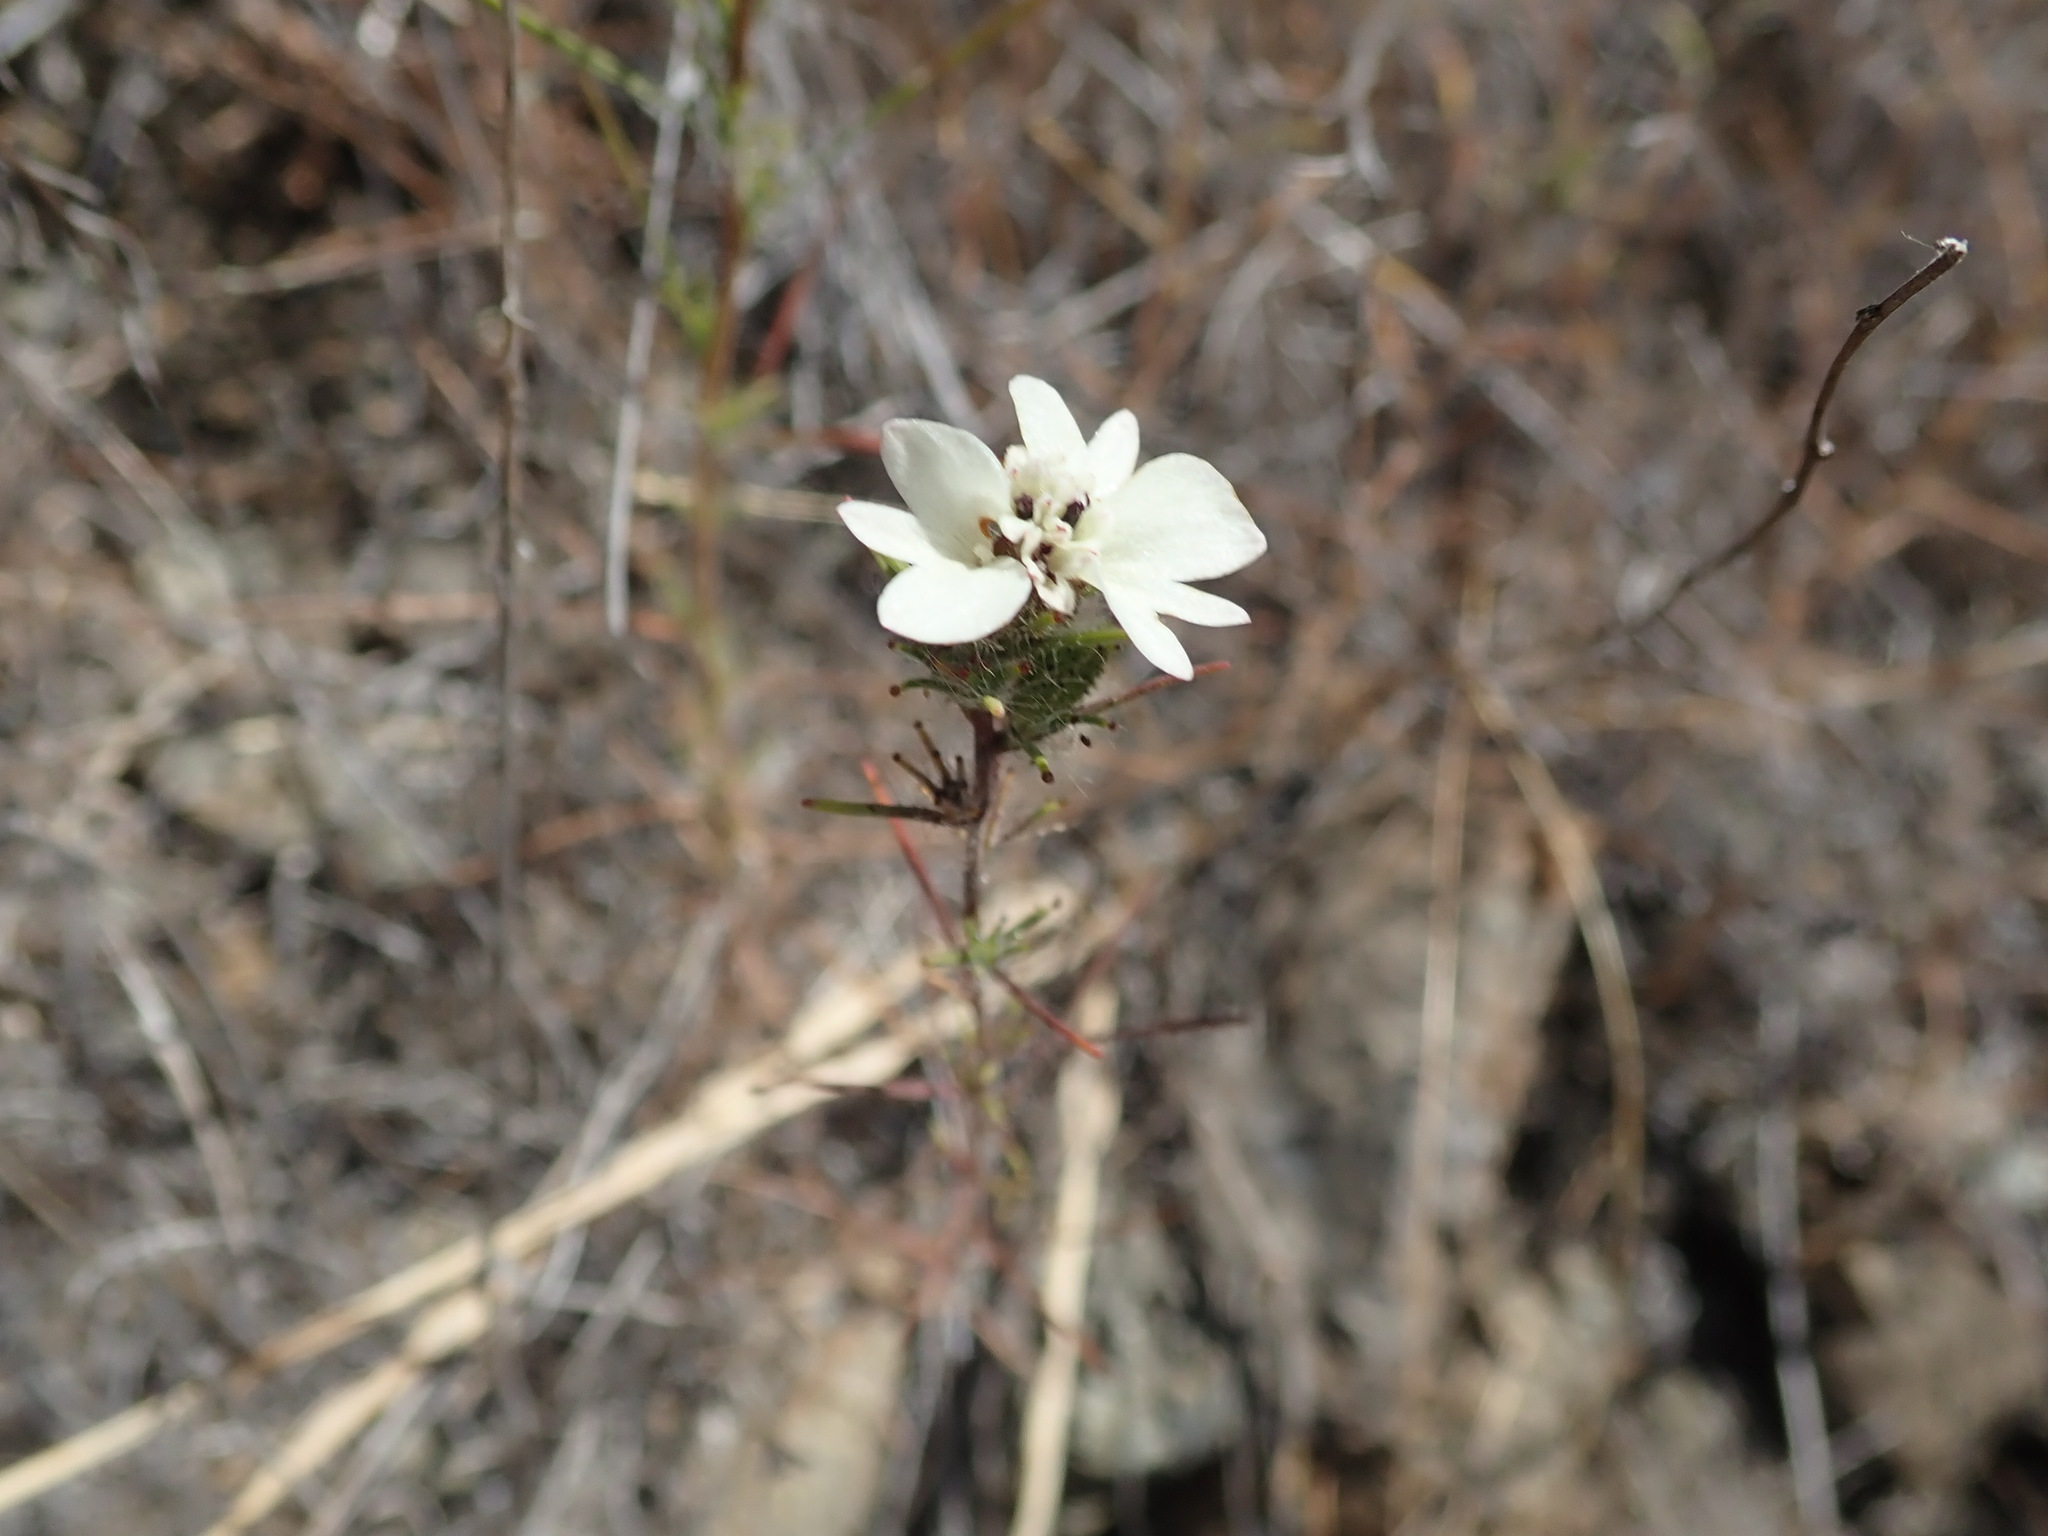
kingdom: Plantae
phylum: Tracheophyta
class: Magnoliopsida
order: Asterales
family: Asteraceae
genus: Calycadenia
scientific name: Calycadenia multiglandulosa
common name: Sticky calycadenia
